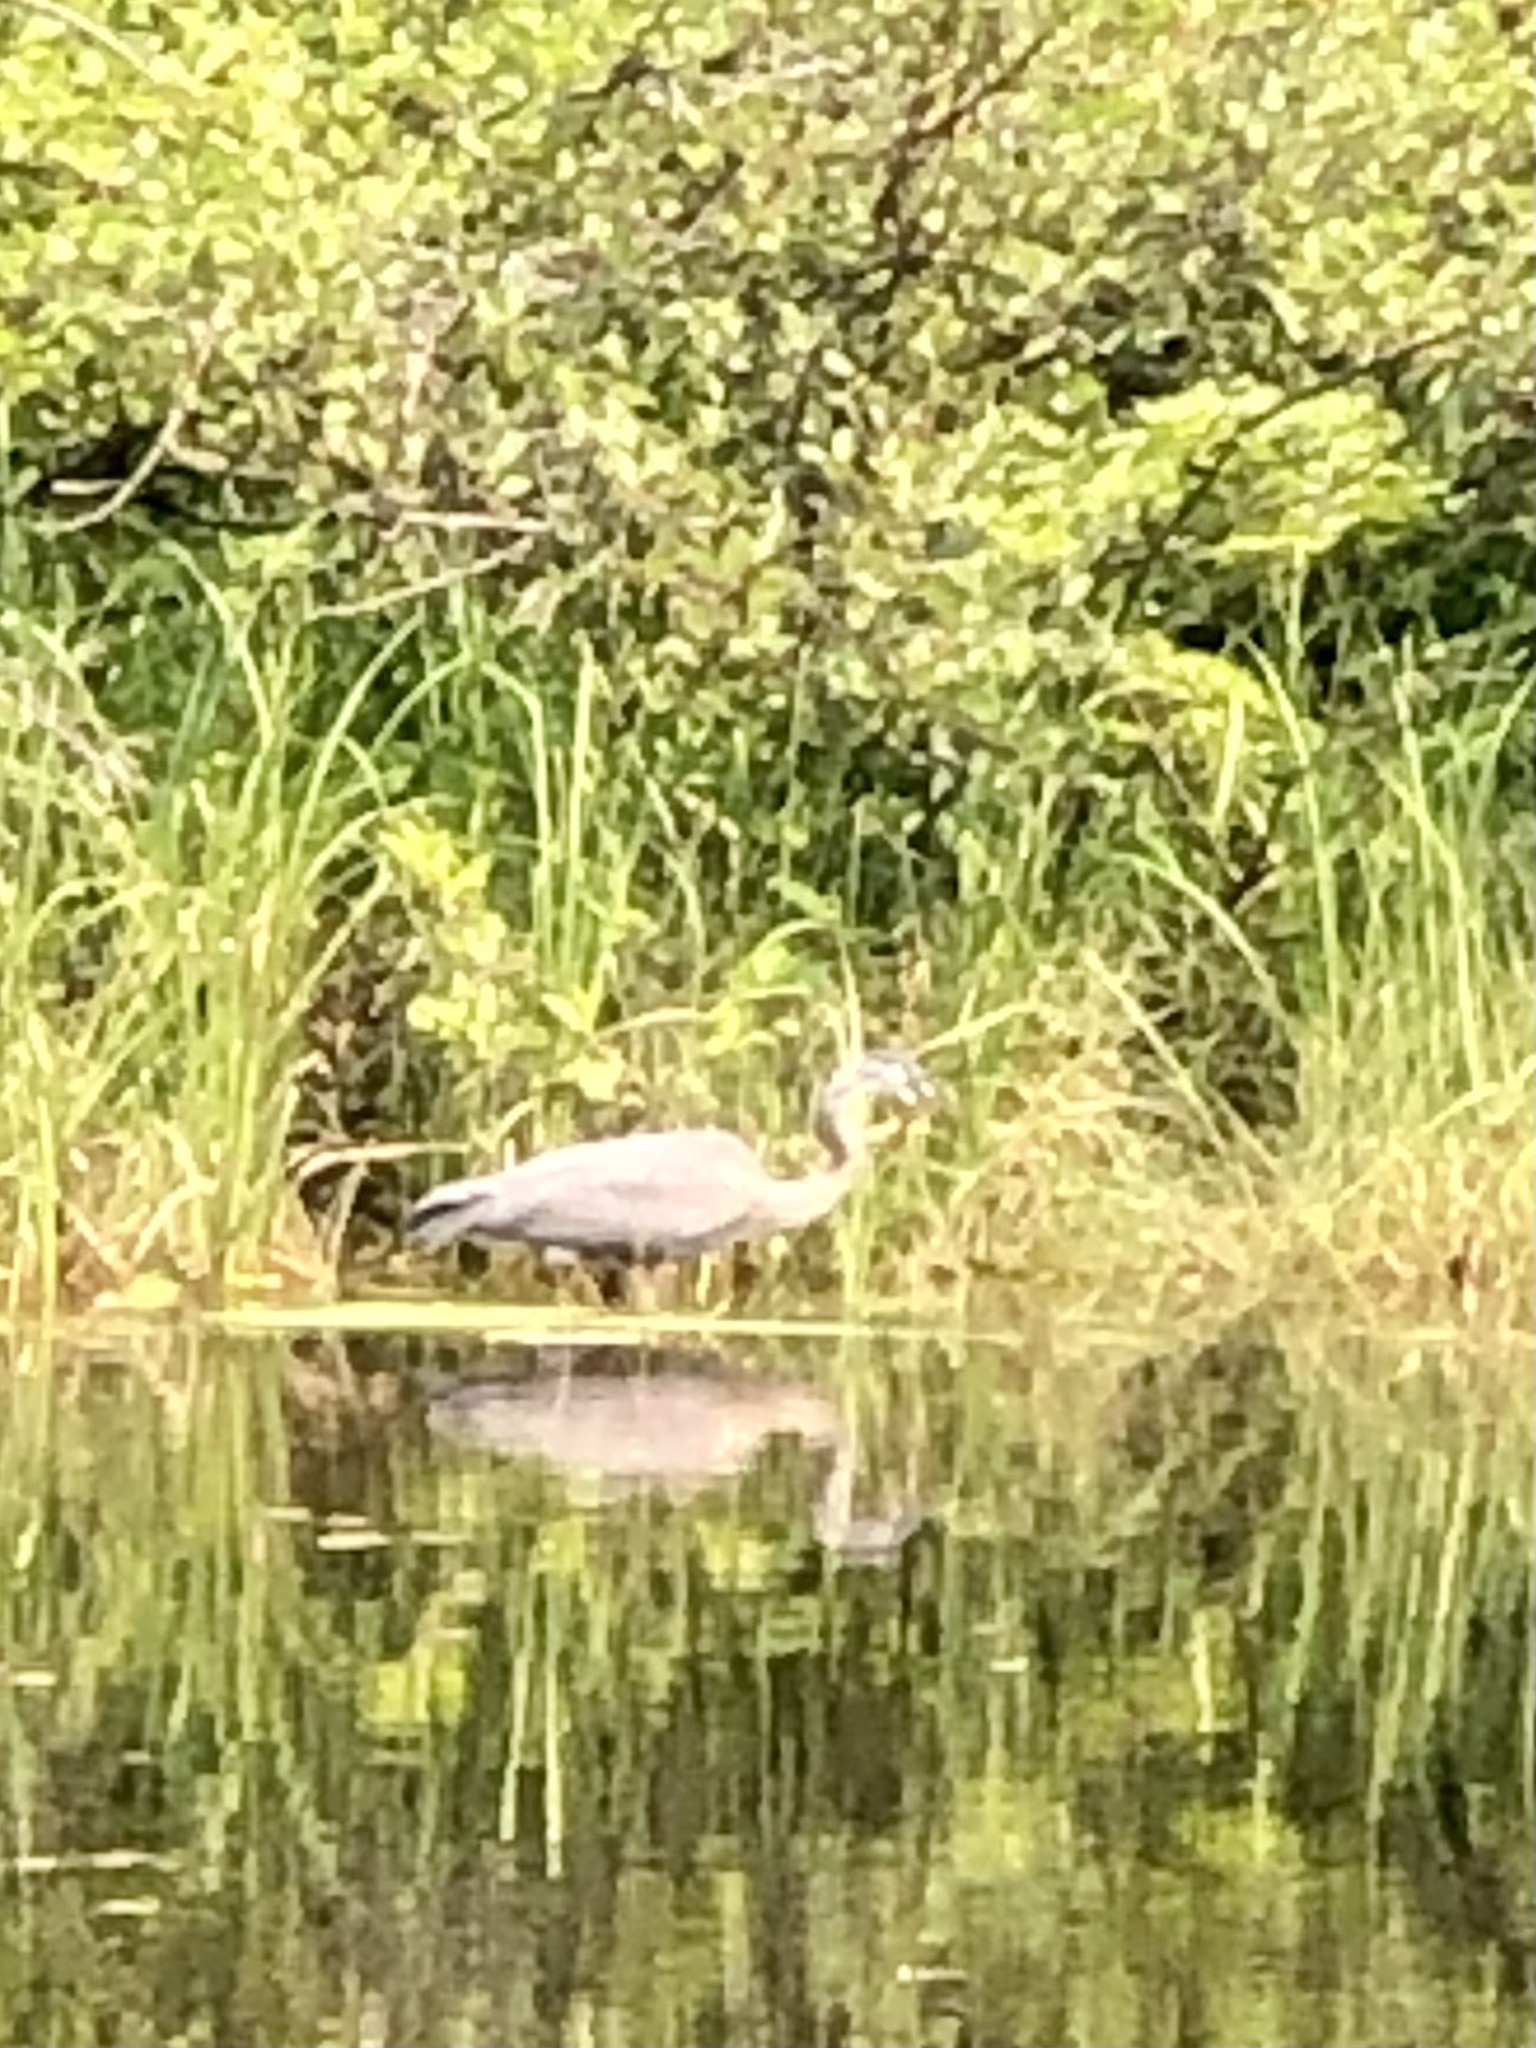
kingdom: Animalia
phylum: Chordata
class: Aves
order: Pelecaniformes
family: Ardeidae
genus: Ardea
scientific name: Ardea herodias
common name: Great blue heron
